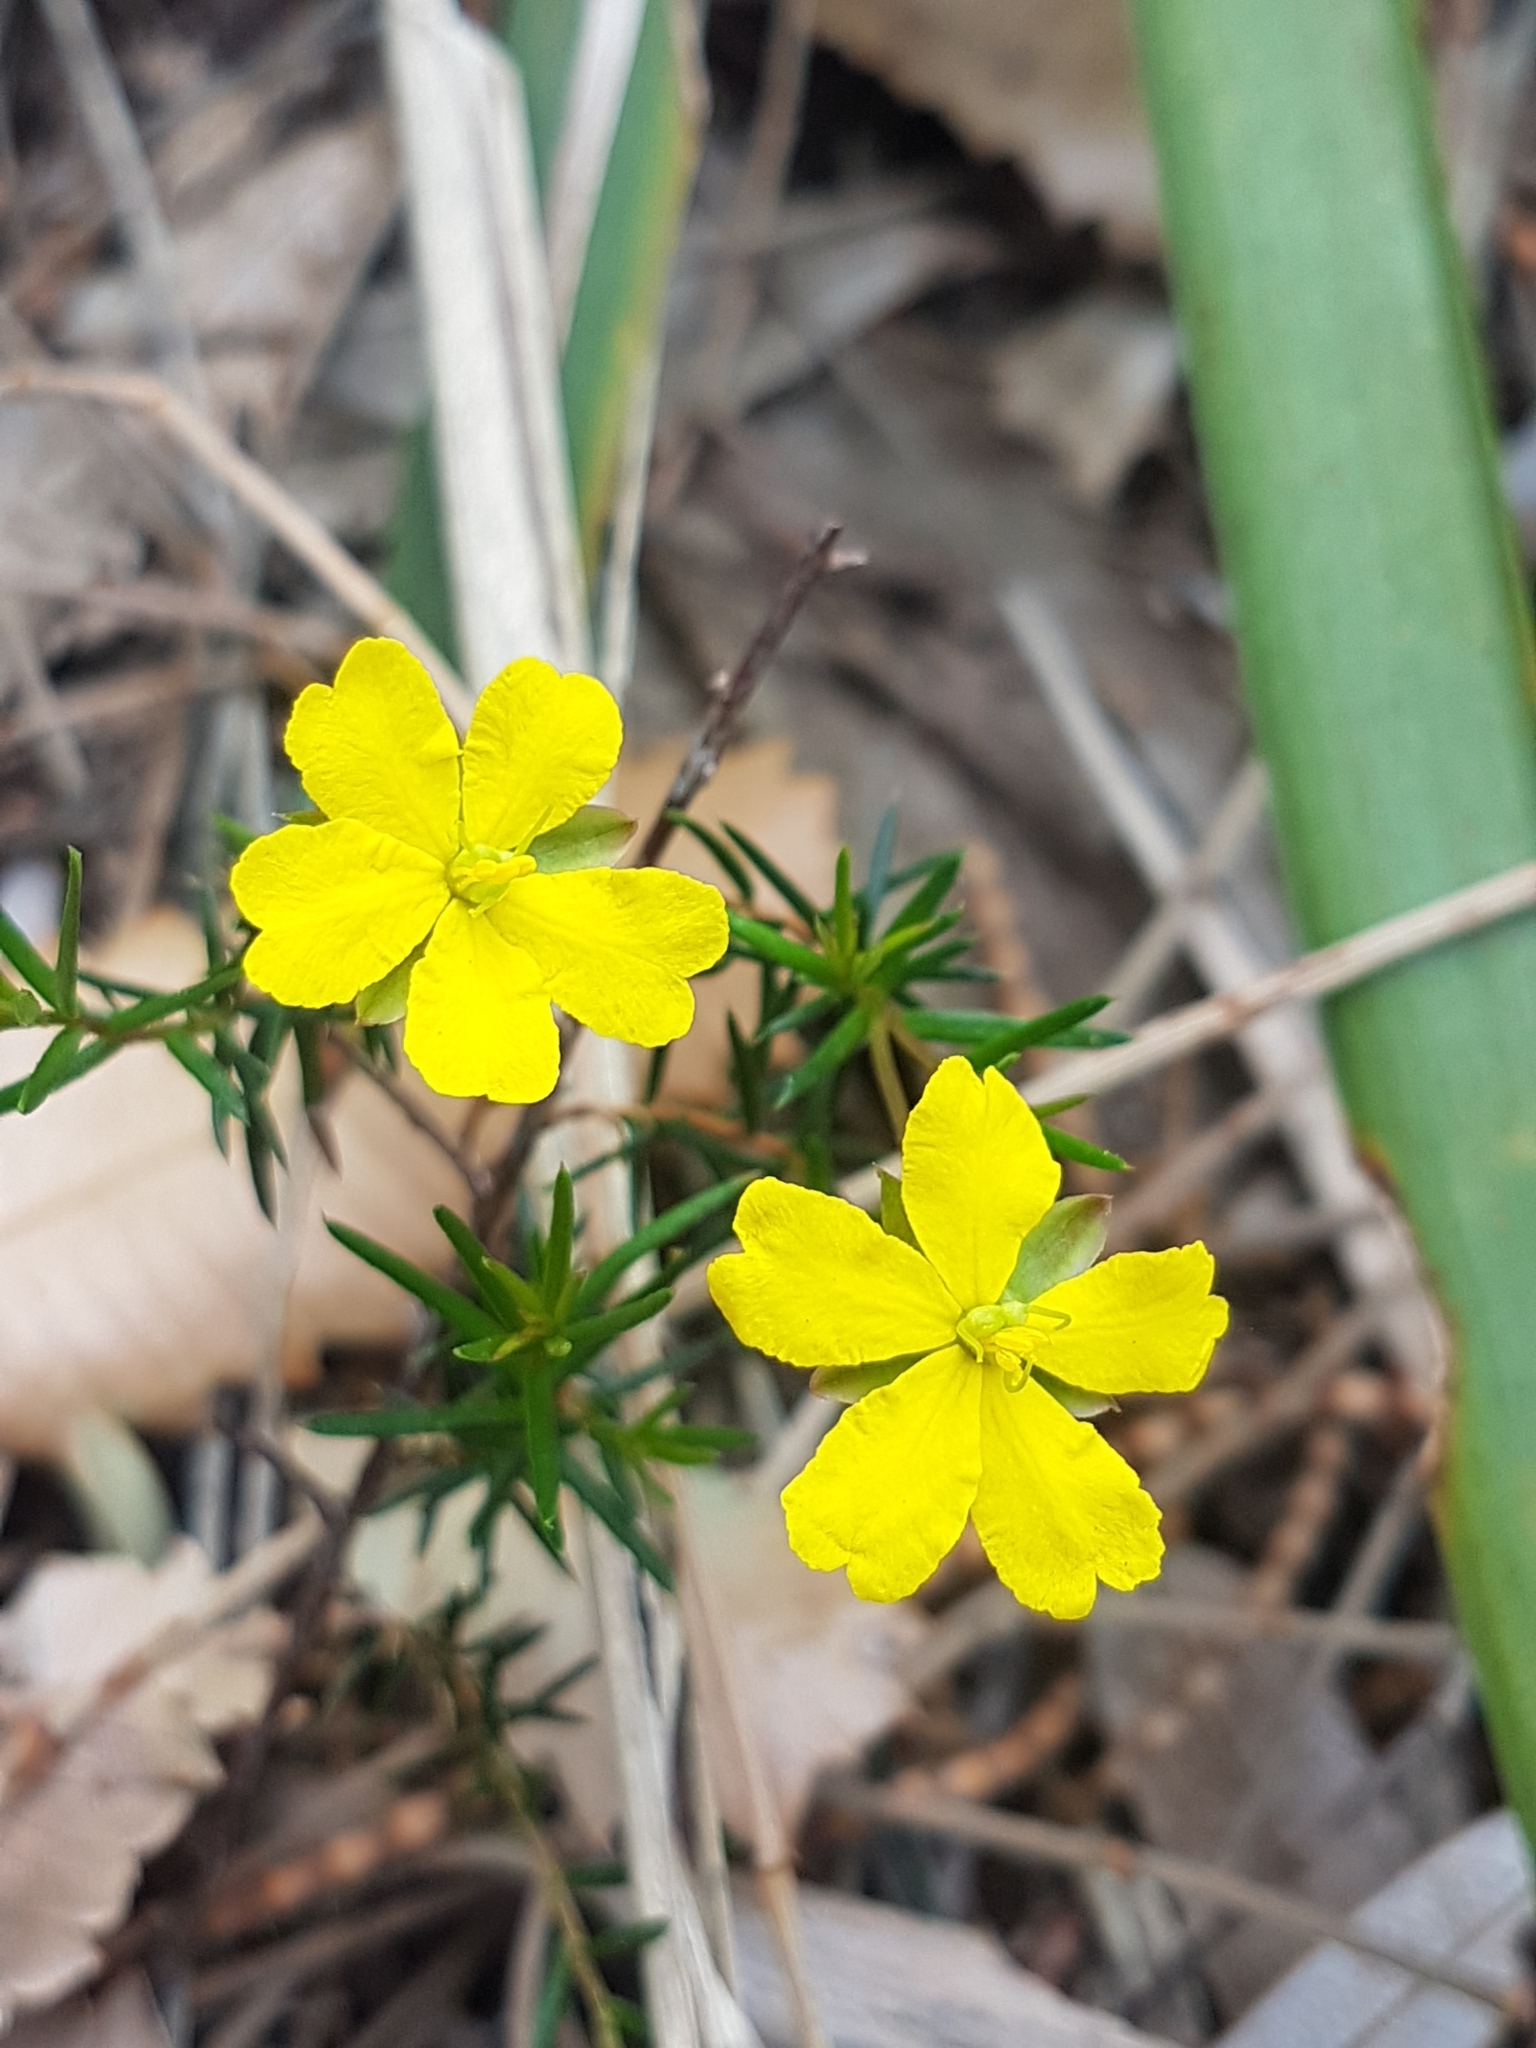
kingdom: Plantae
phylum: Tracheophyta
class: Magnoliopsida
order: Dilleniales
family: Dilleniaceae
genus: Hibbertia
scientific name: Hibbertia acicularis
